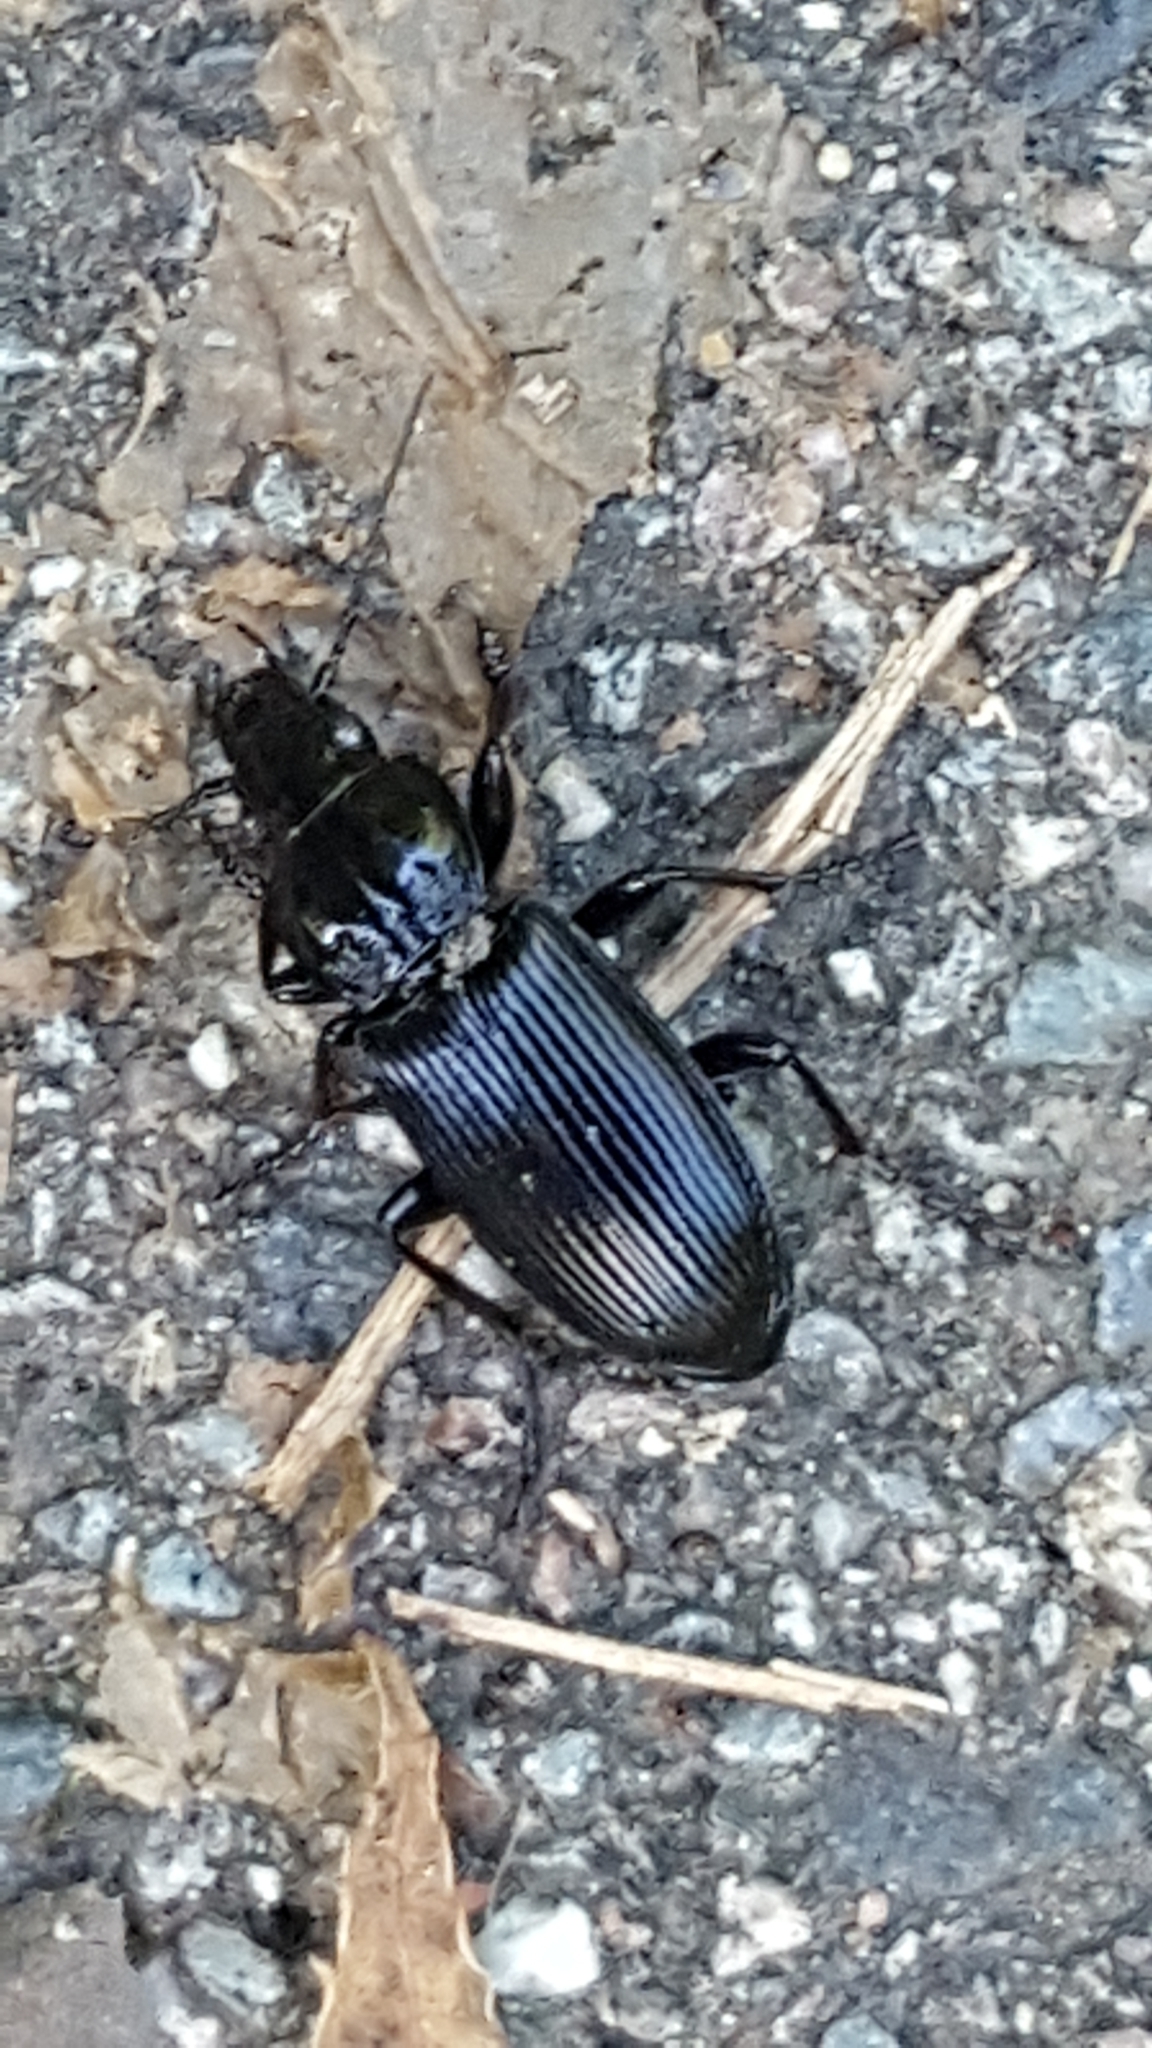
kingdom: Animalia
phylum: Arthropoda
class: Insecta
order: Coleoptera
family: Carabidae
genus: Pterostichus
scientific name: Pterostichus melanarius
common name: European dark harp ground beetle
